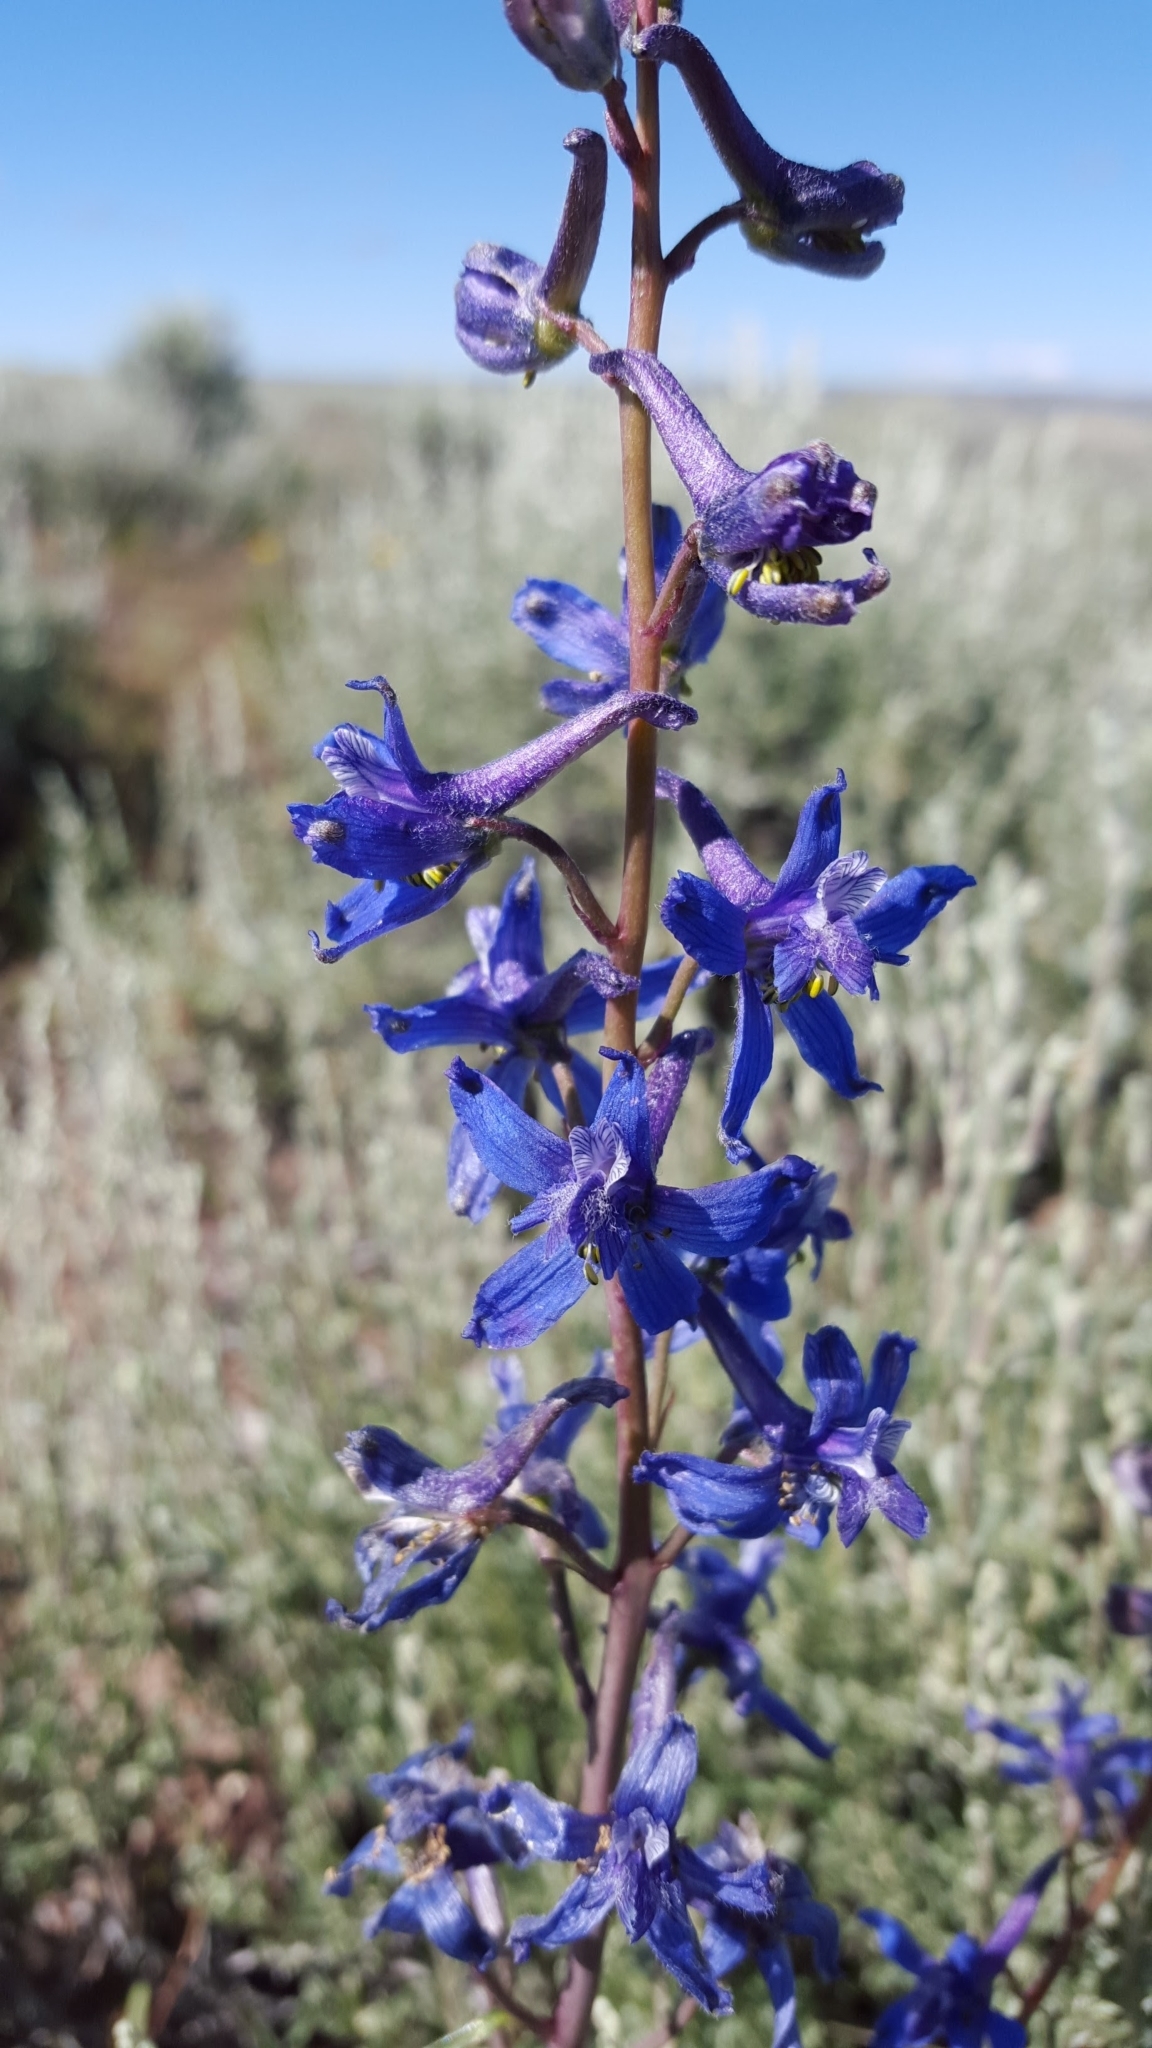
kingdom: Plantae
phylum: Tracheophyta
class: Magnoliopsida
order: Ranunculales
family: Ranunculaceae
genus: Delphinium
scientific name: Delphinium nuttallianum
